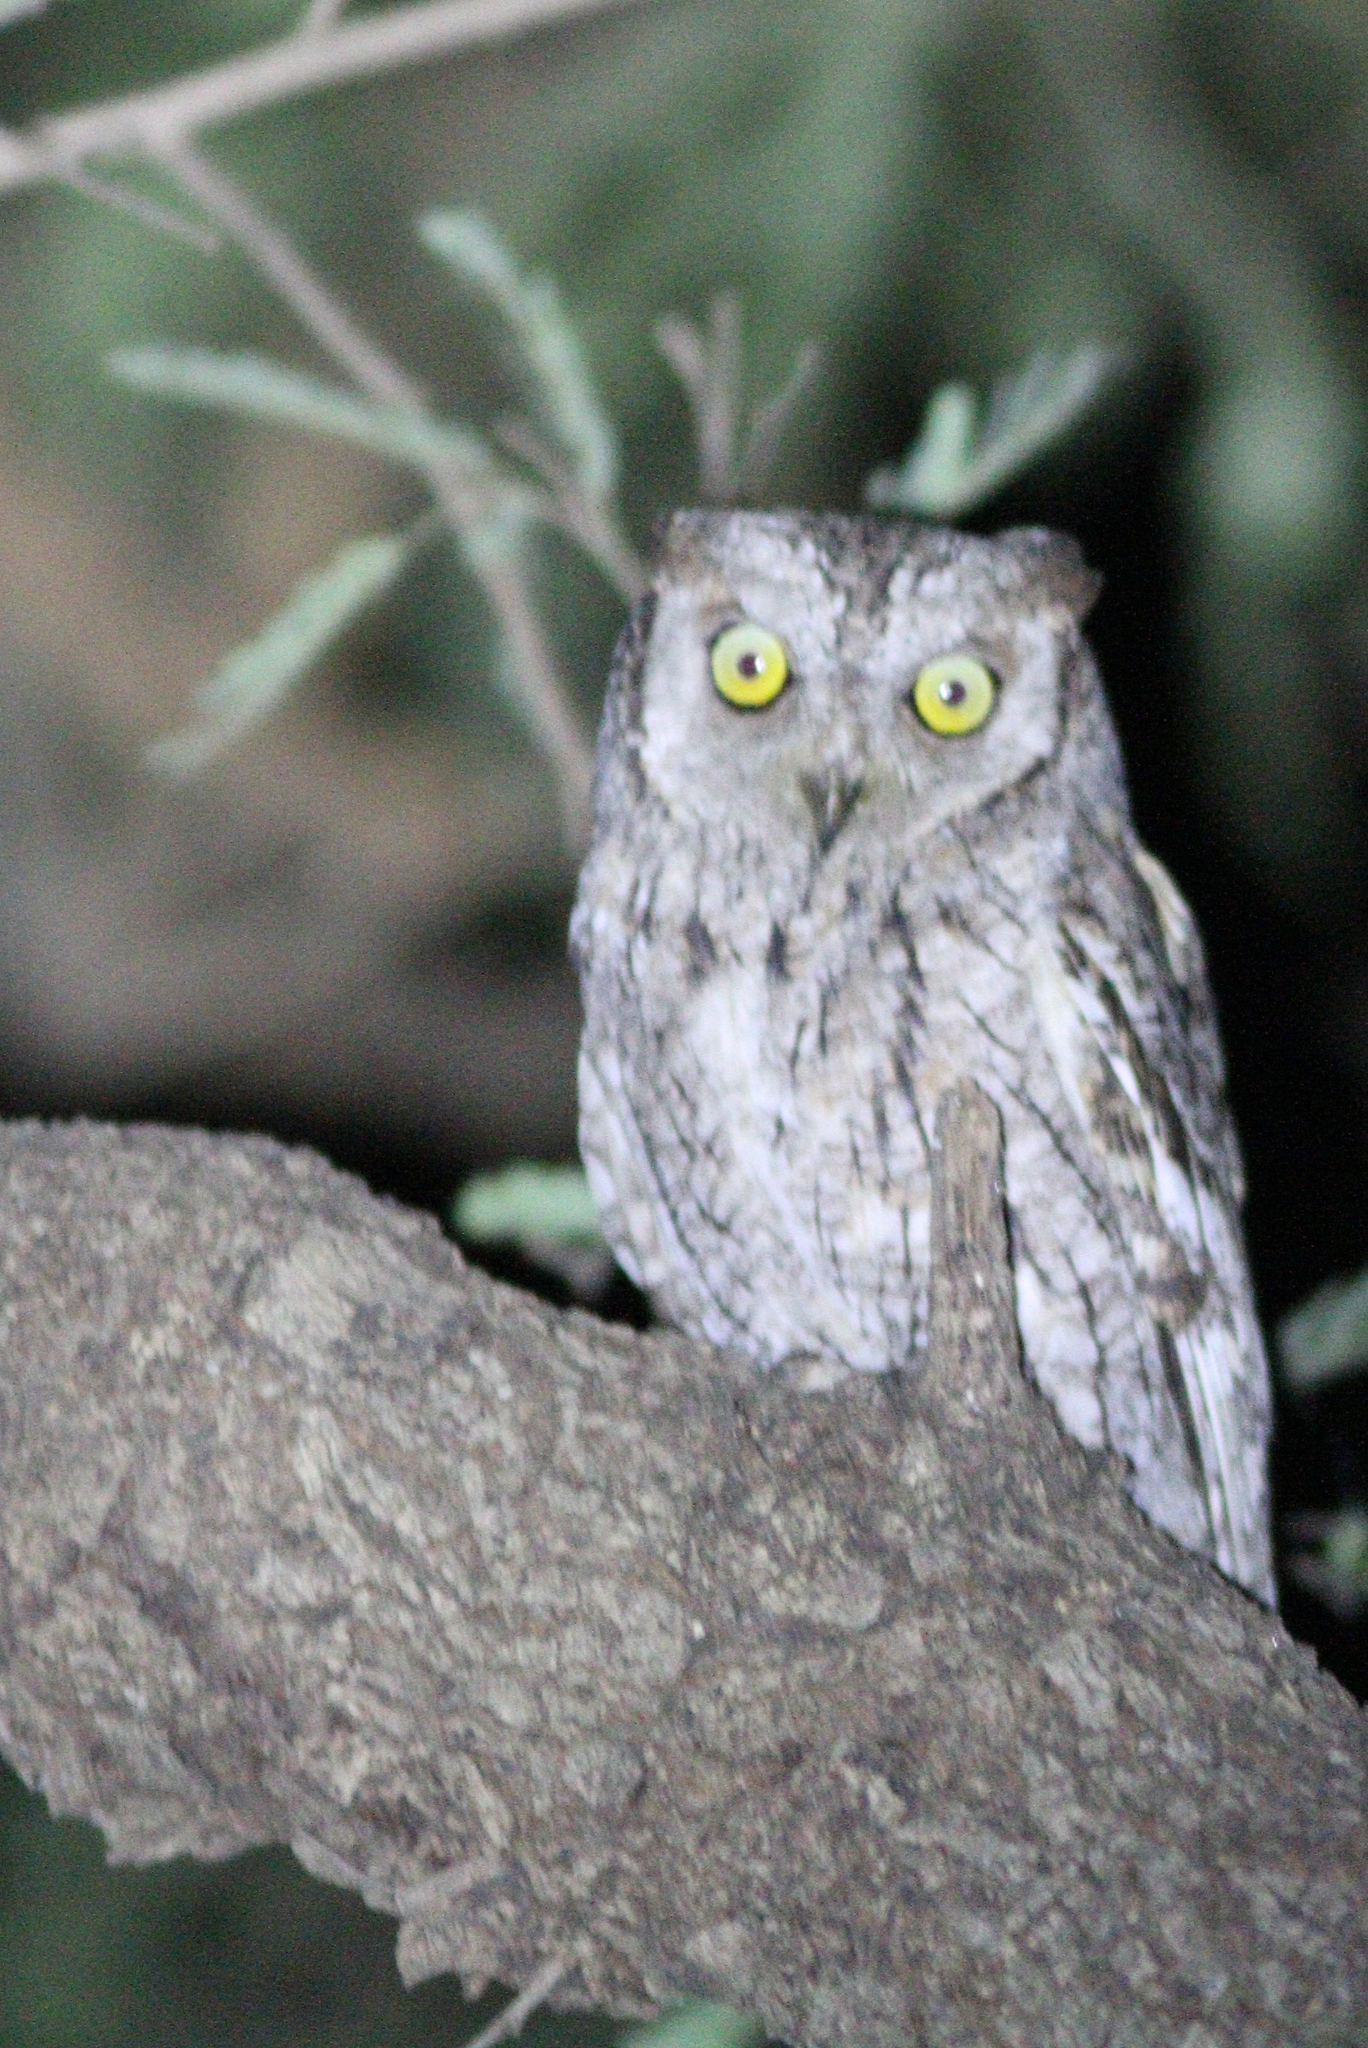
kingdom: Animalia
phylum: Chordata
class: Aves
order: Strigiformes
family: Strigidae
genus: Otus
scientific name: Otus senegalensis
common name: African scops owl
